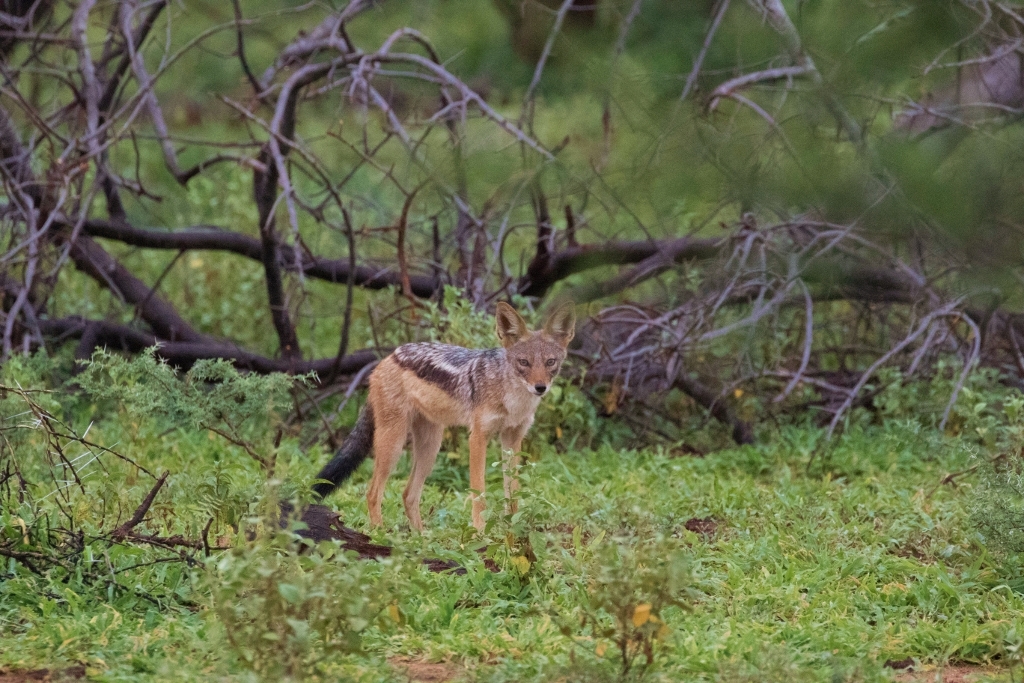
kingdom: Animalia
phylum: Chordata
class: Mammalia
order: Carnivora
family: Canidae
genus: Lupulella
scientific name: Lupulella
